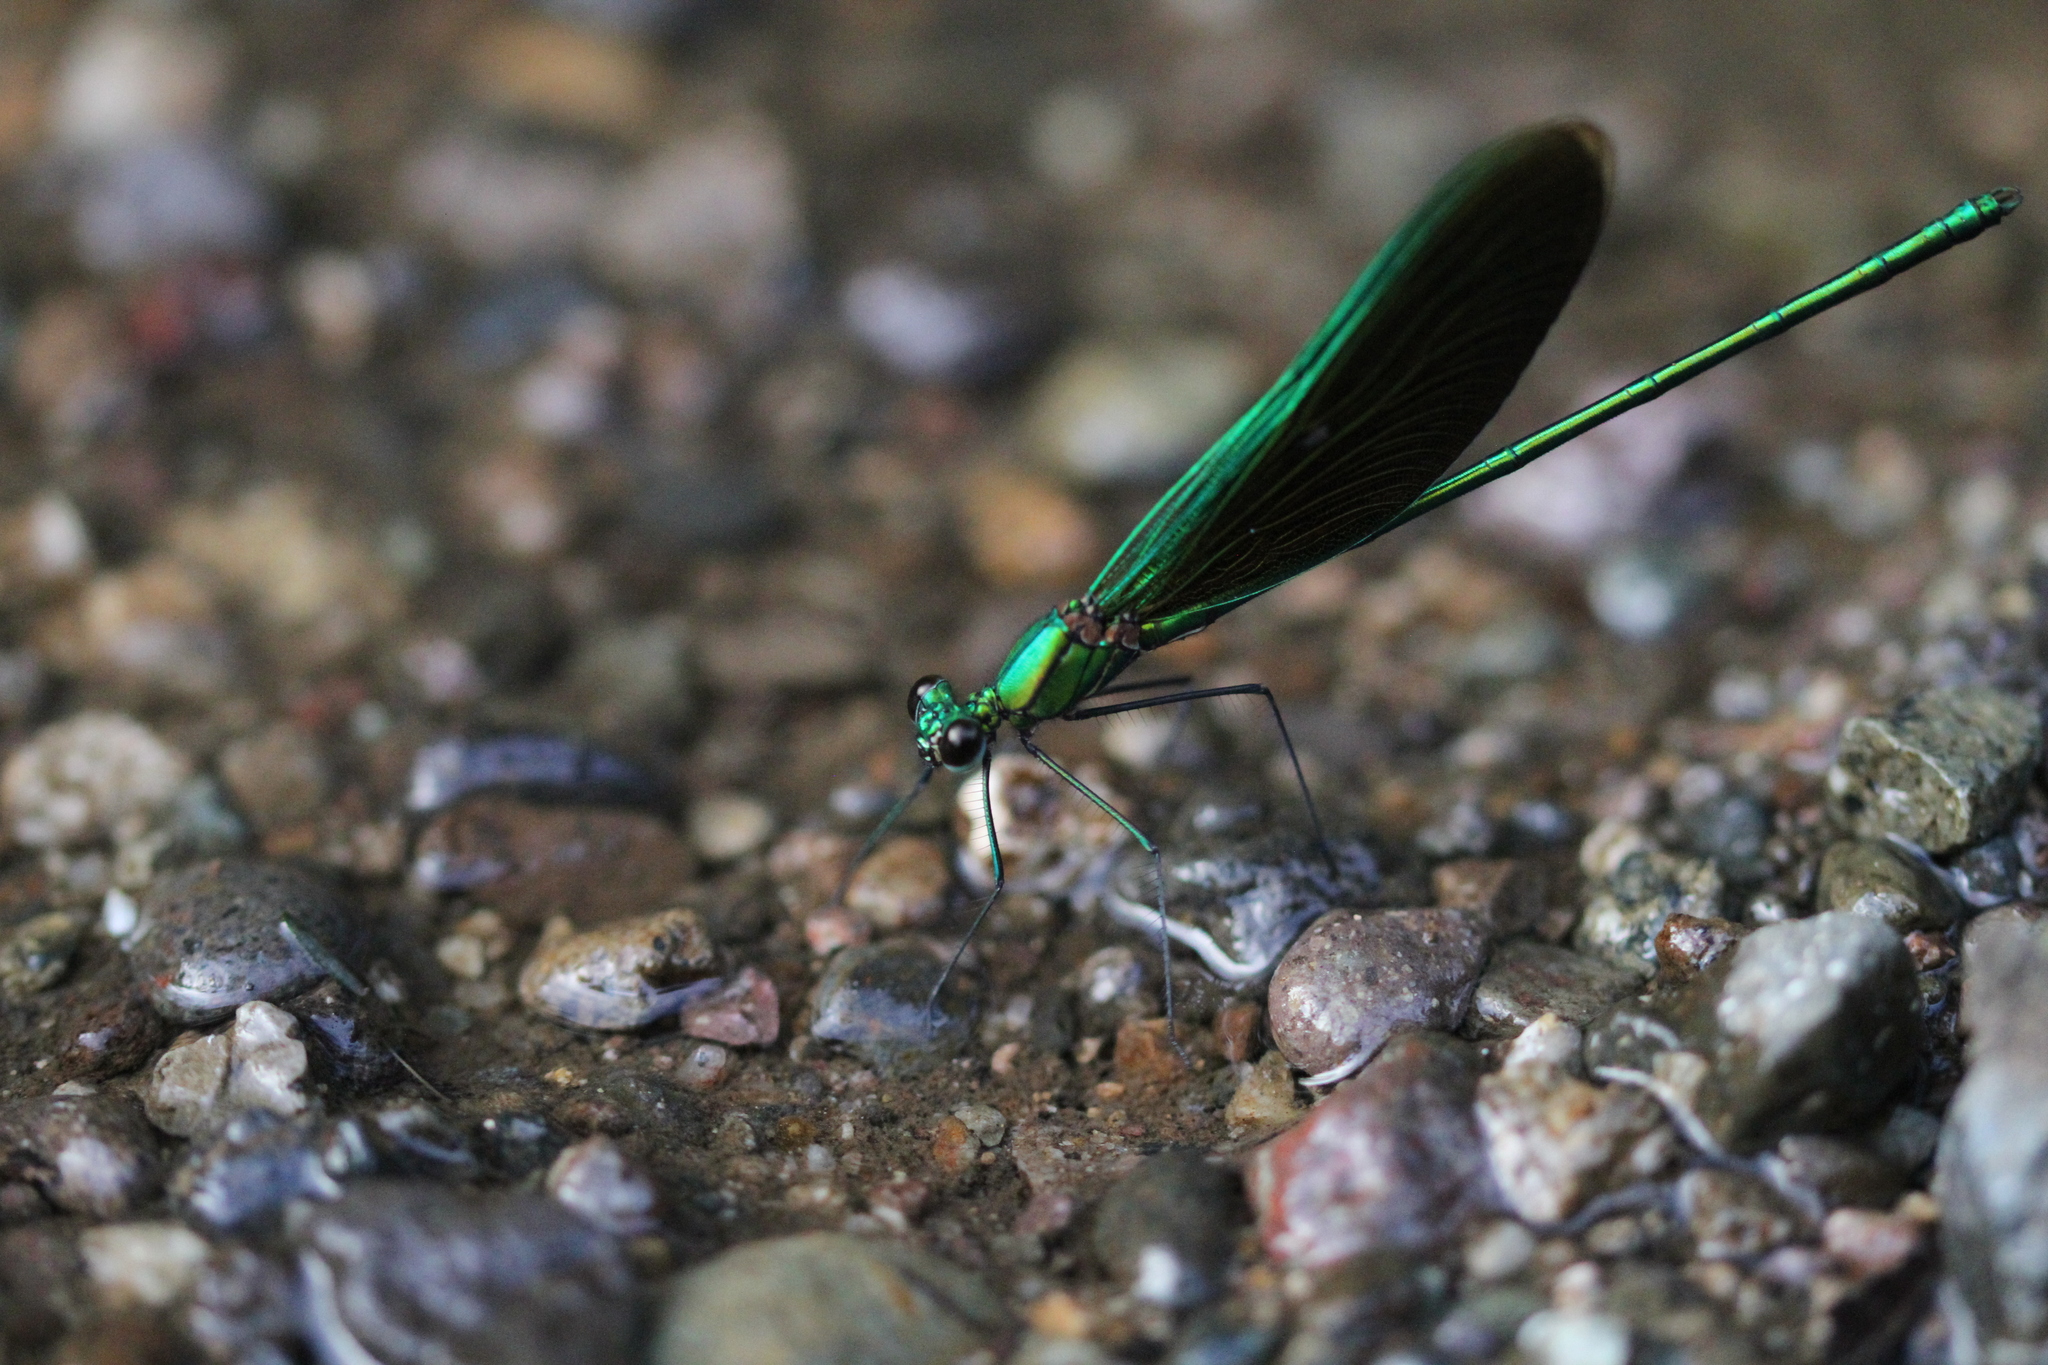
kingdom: Animalia
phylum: Arthropoda
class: Insecta
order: Odonata
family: Calopterygidae
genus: Neurobasis
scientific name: Neurobasis chinensis
